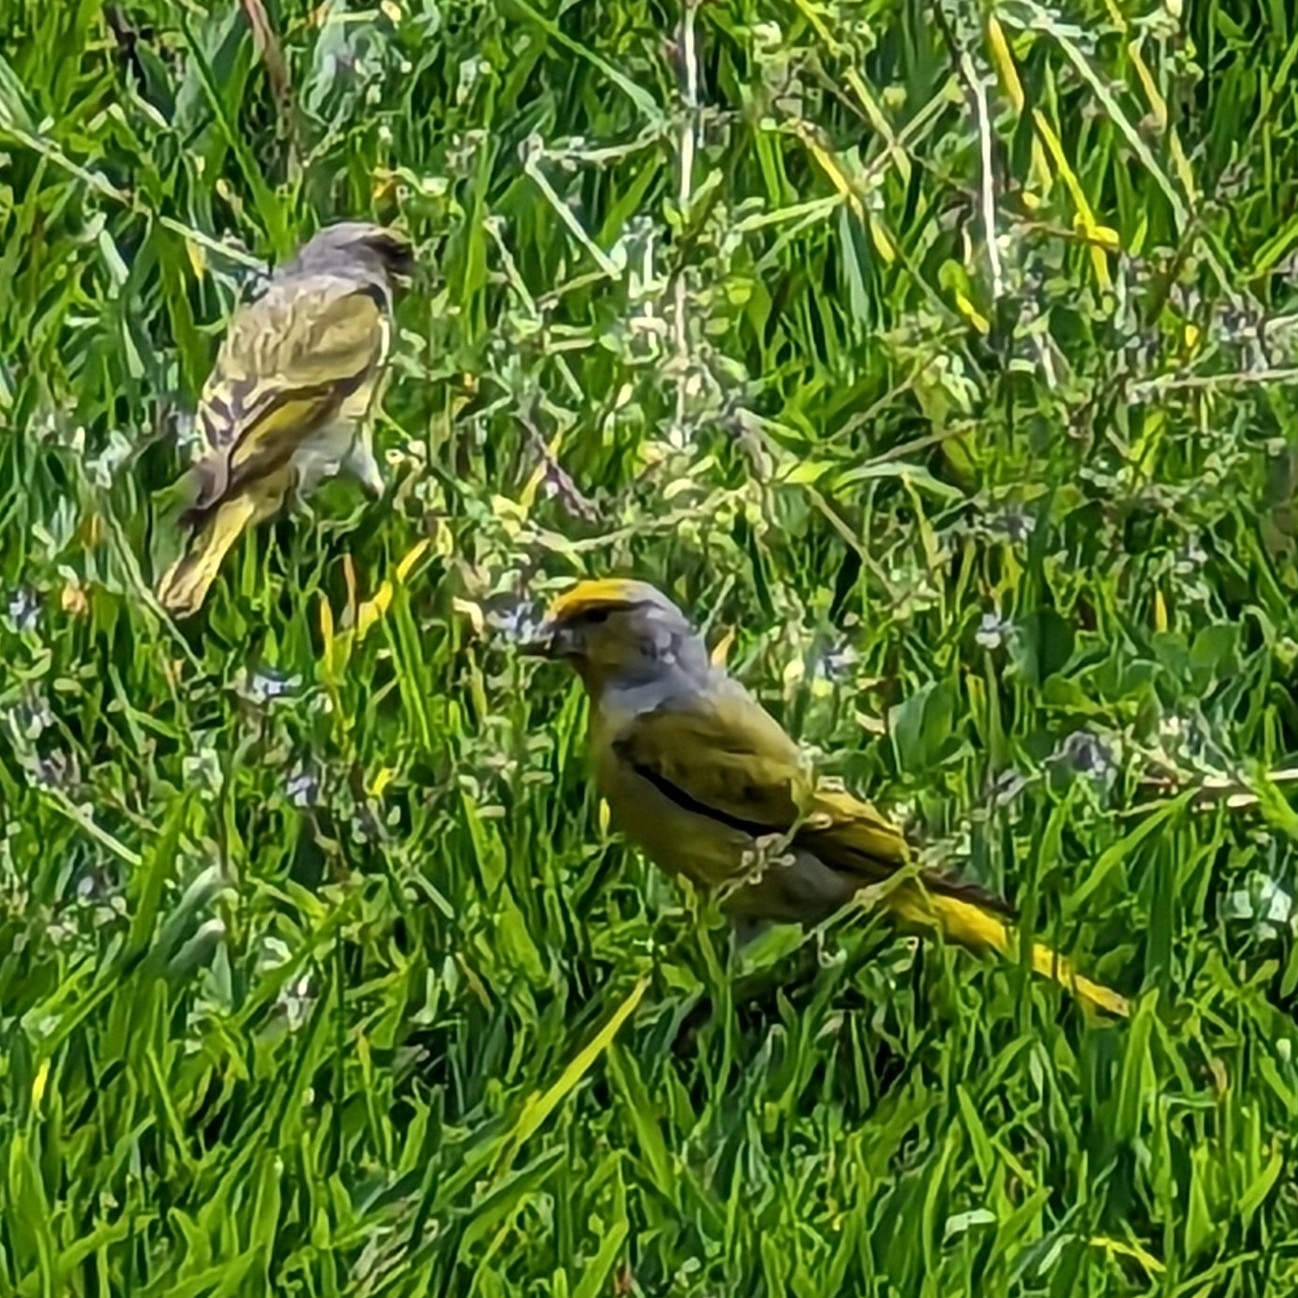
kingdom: Animalia
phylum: Chordata
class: Aves
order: Passeriformes
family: Fringillidae
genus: Serinus
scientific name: Serinus canicollis
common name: Cape canary
